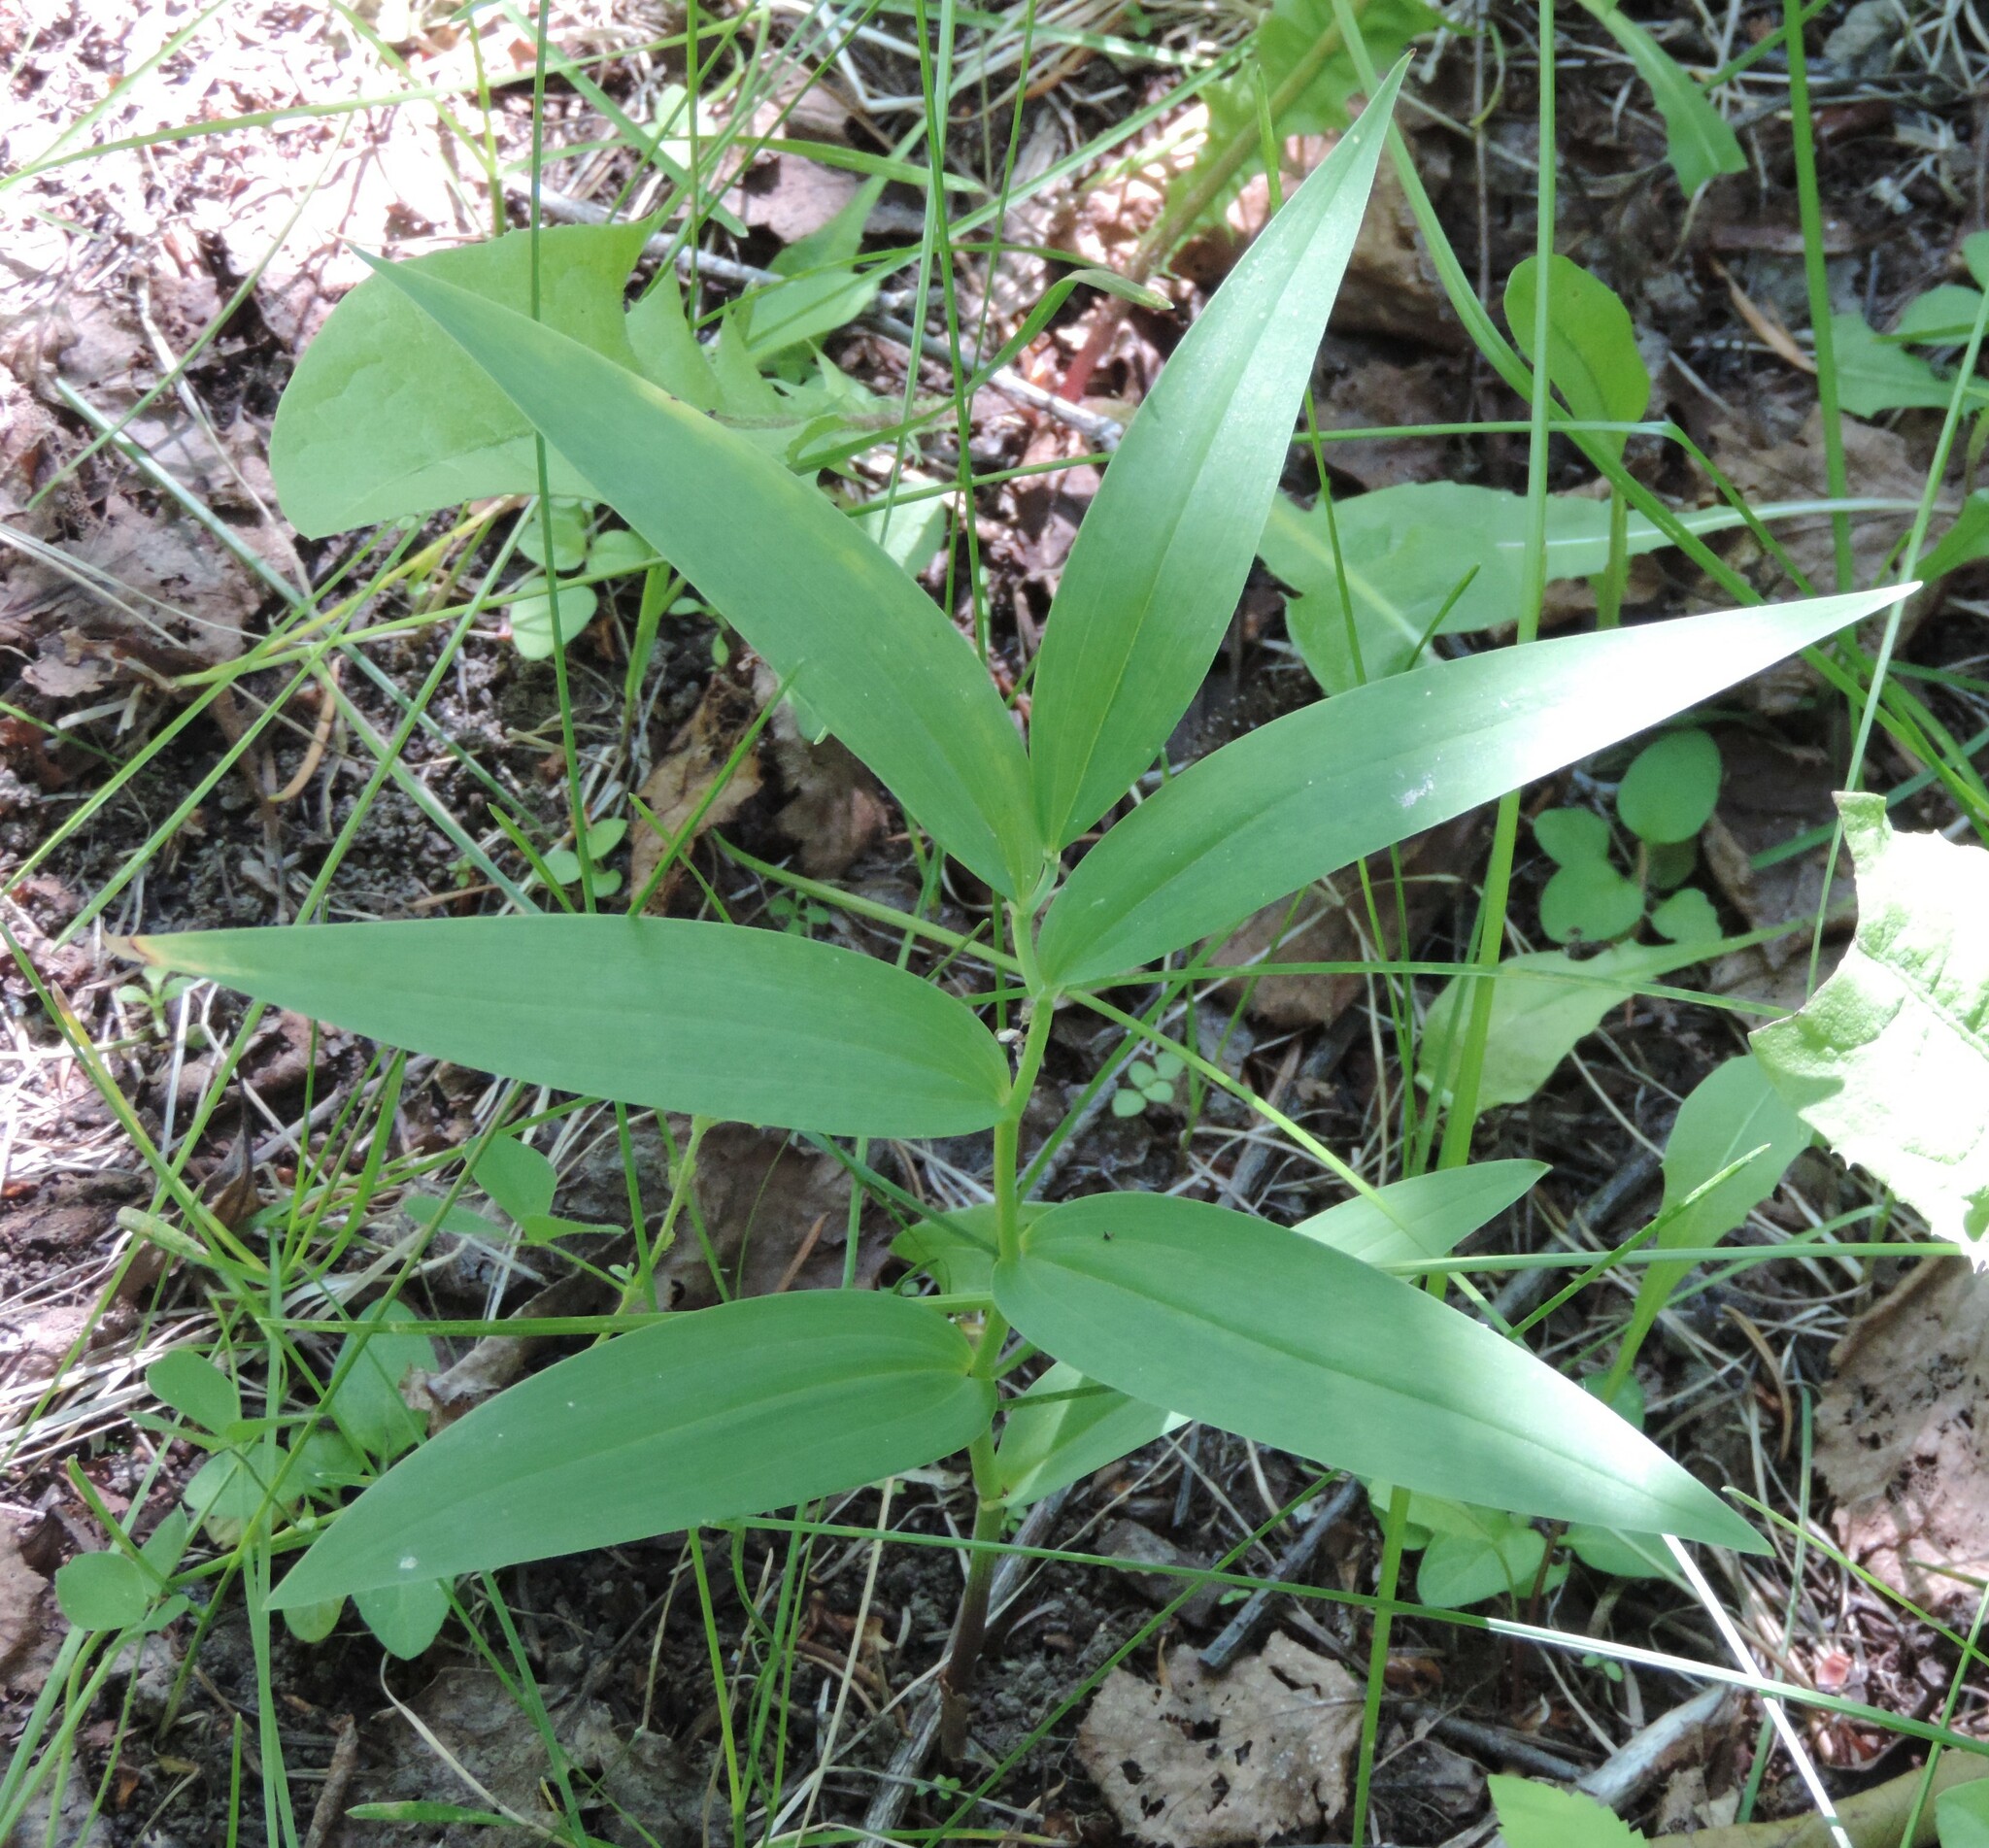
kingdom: Plantae
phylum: Tracheophyta
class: Liliopsida
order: Asparagales
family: Asparagaceae
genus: Maianthemum
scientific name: Maianthemum stellatum
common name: Little false solomon's seal
